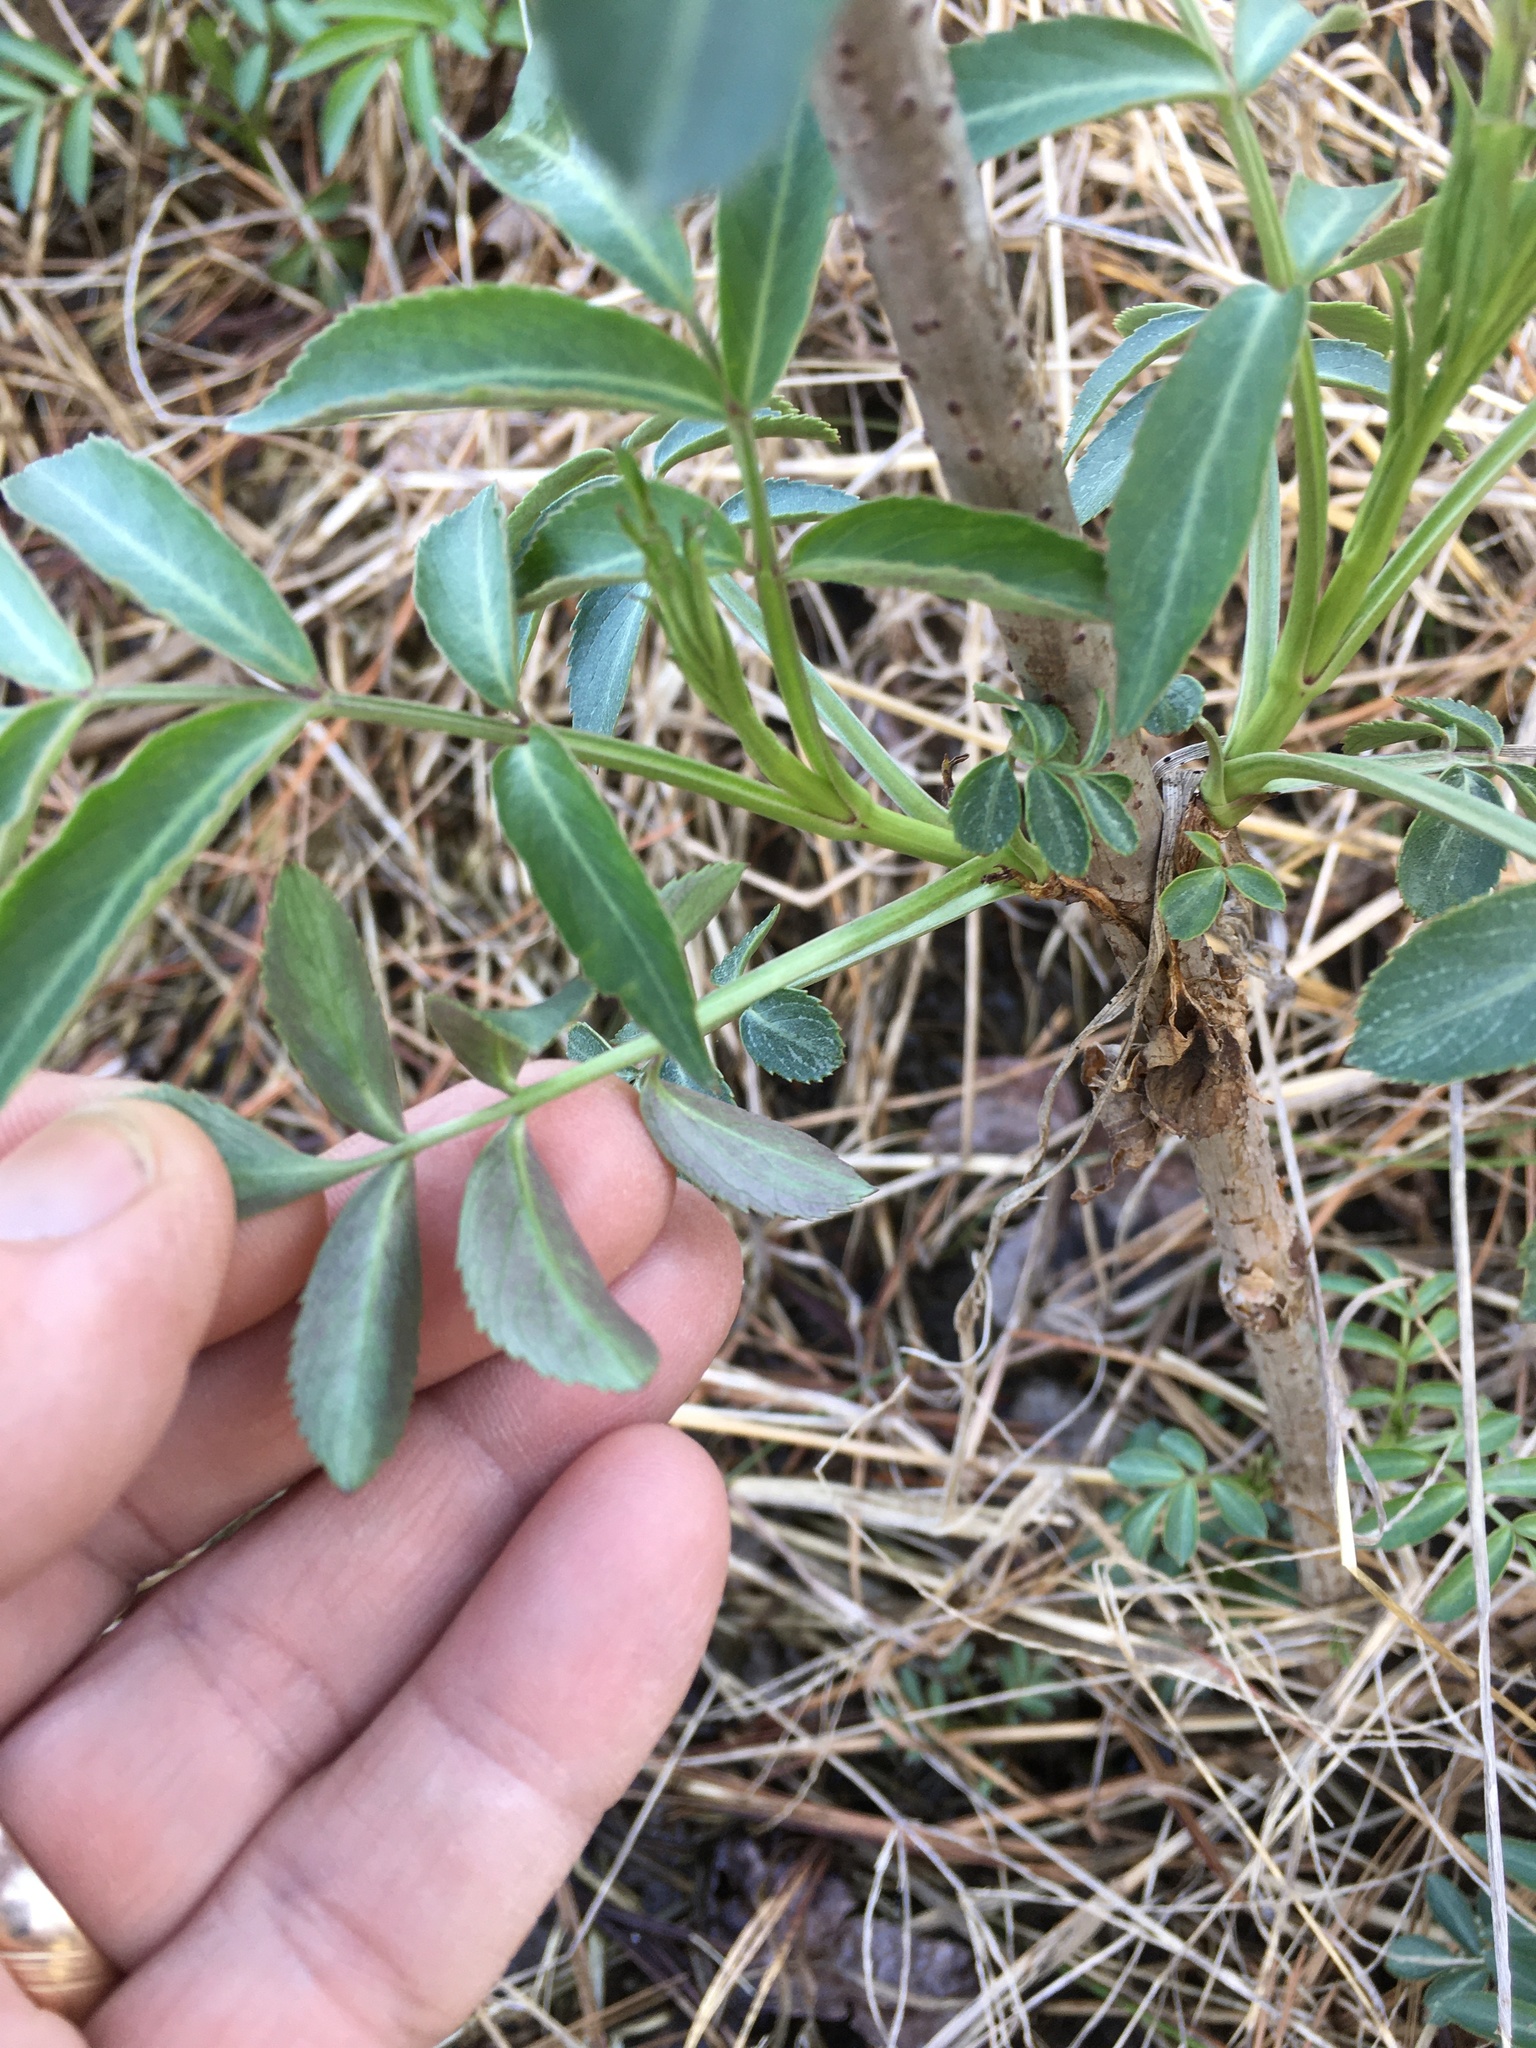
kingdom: Plantae
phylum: Tracheophyta
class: Magnoliopsida
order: Dipsacales
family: Viburnaceae
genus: Sambucus
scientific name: Sambucus canadensis
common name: American elder
